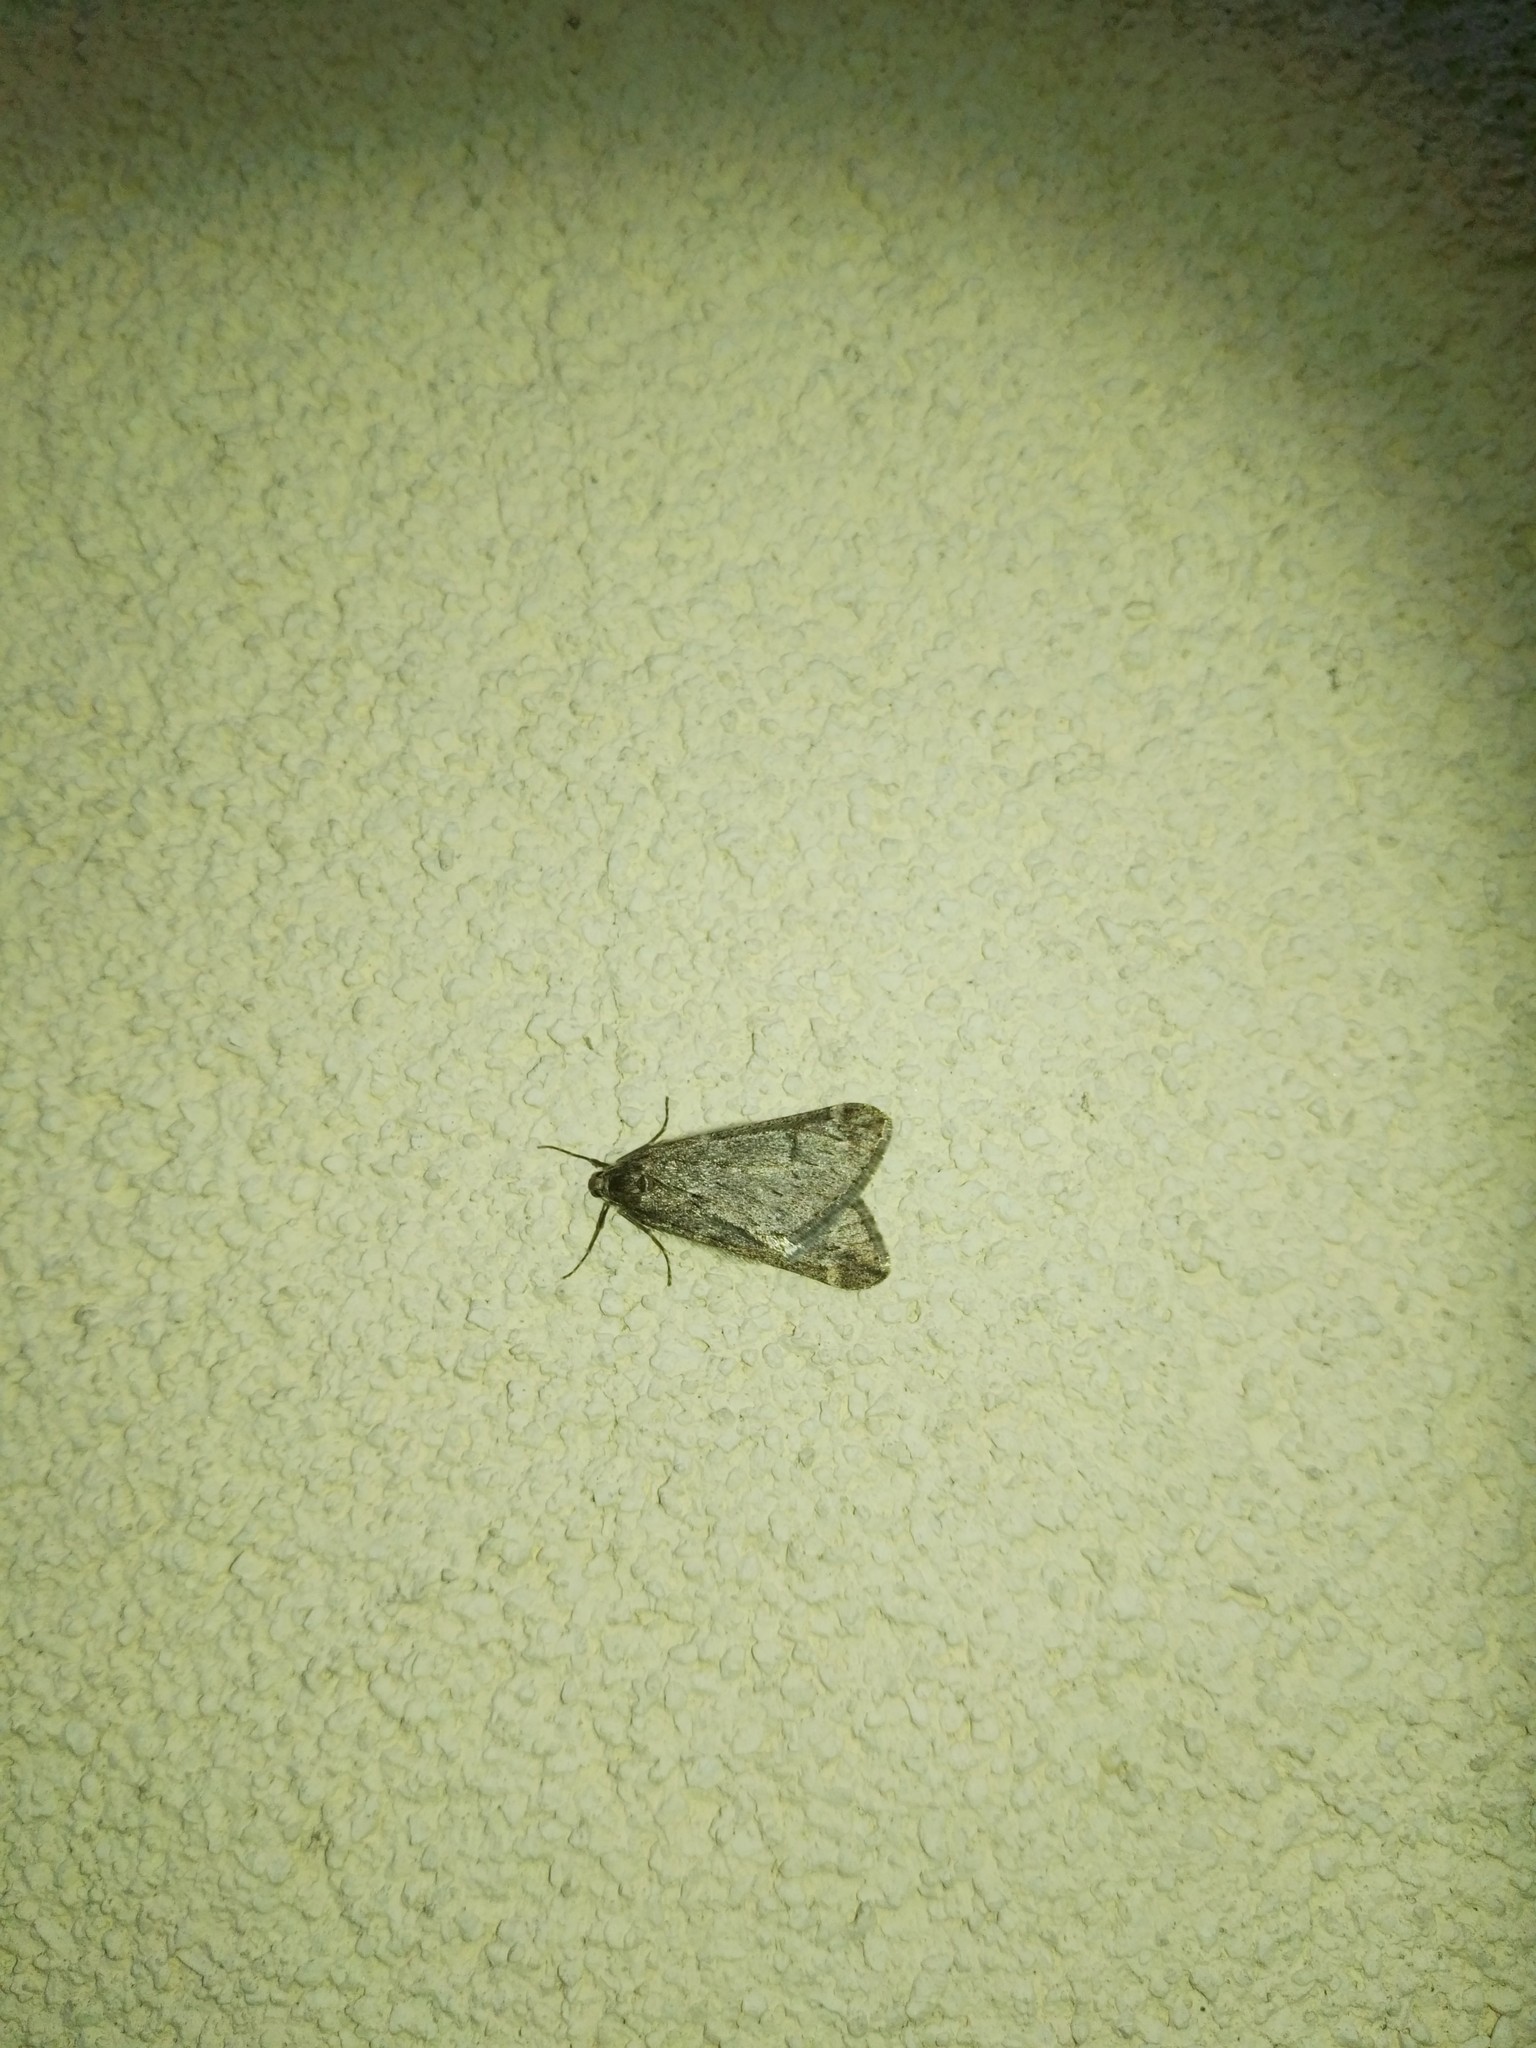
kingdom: Animalia
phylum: Arthropoda
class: Insecta
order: Lepidoptera
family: Geometridae
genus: Alsophila
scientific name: Alsophila aescularia
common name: March moth
